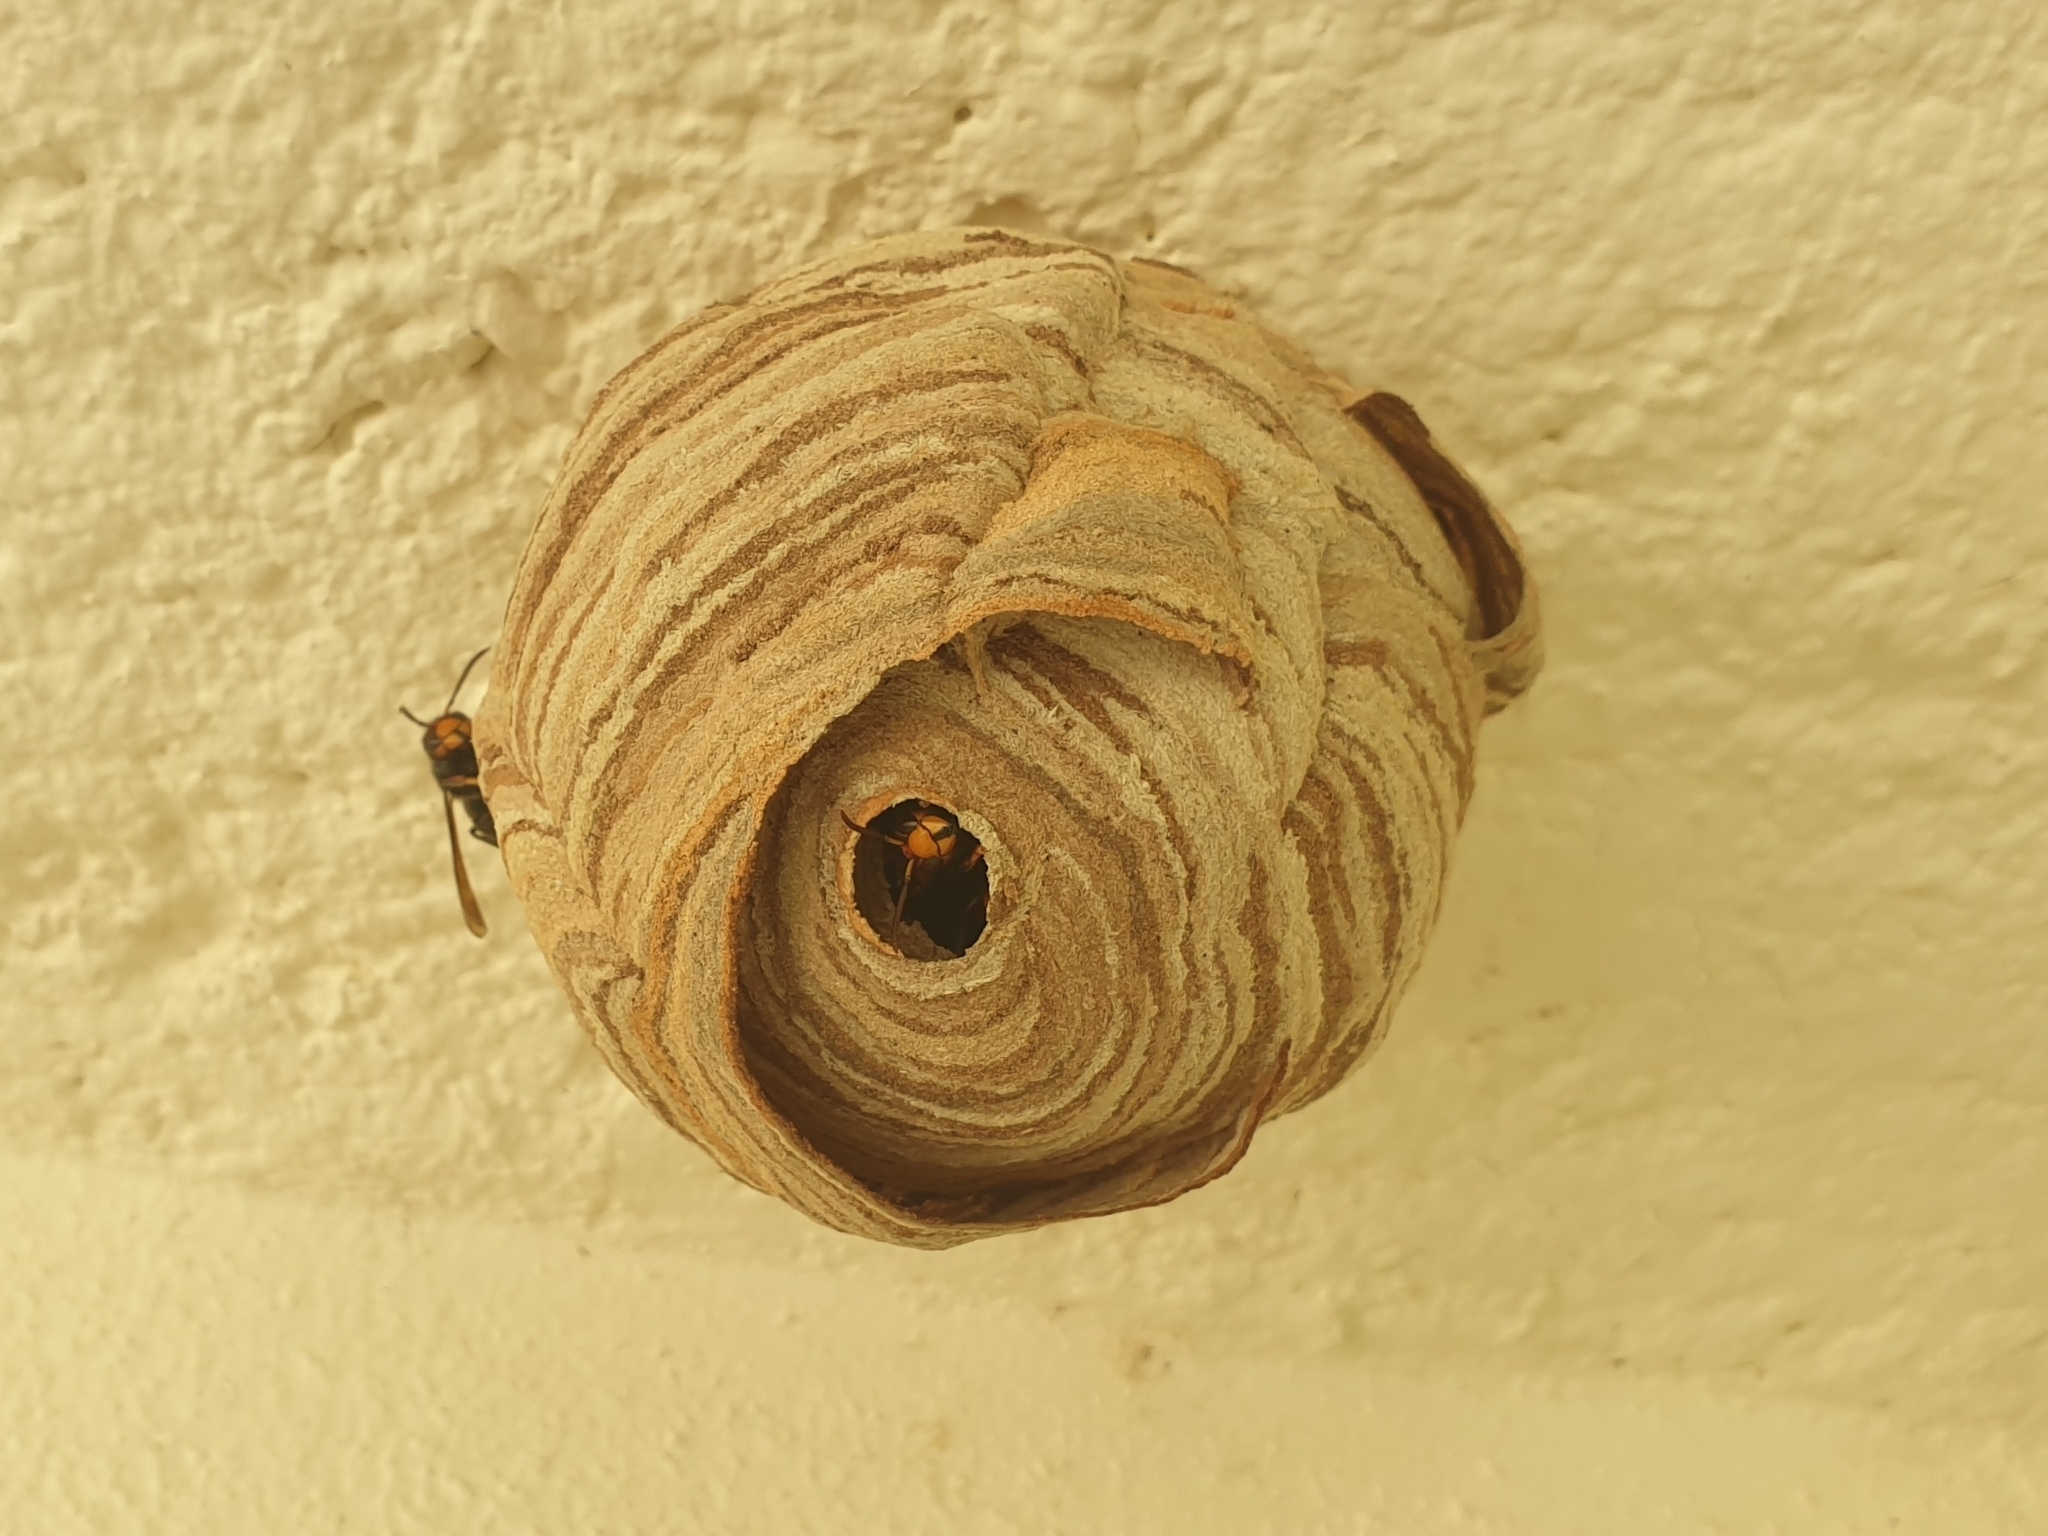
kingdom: Animalia
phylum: Arthropoda
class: Insecta
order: Hymenoptera
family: Vespidae
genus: Vespa
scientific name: Vespa velutina
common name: Asian hornet
